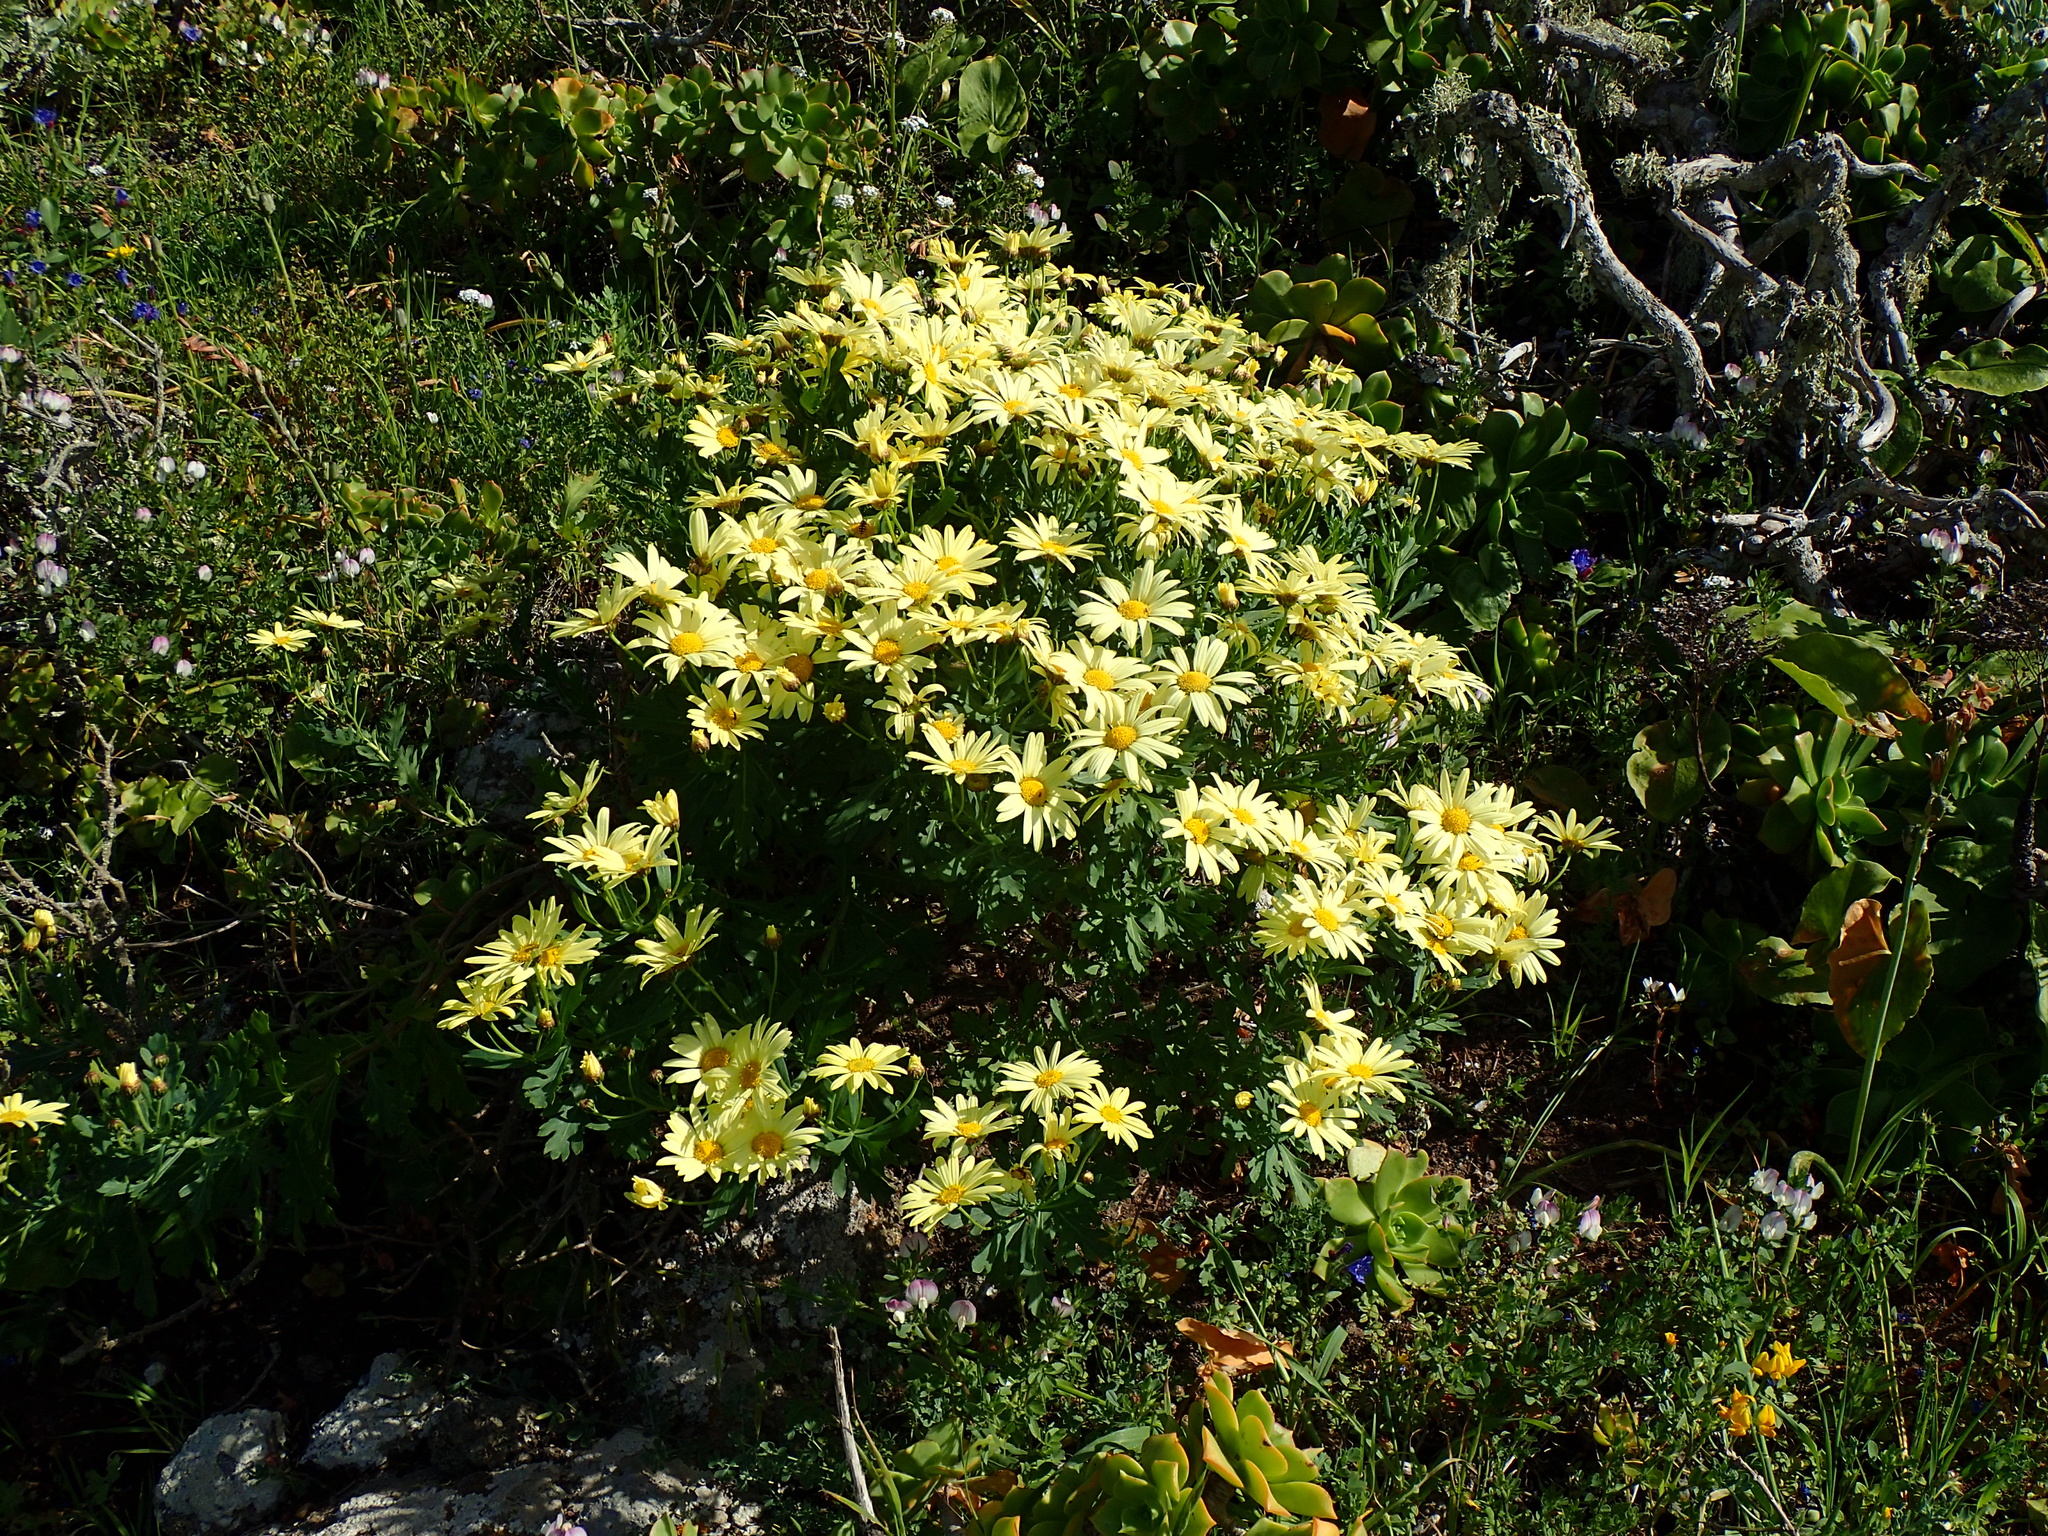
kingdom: Plantae
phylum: Tracheophyta
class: Magnoliopsida
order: Asterales
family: Asteraceae
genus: Argyranthemum
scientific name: Argyranthemum maderense
